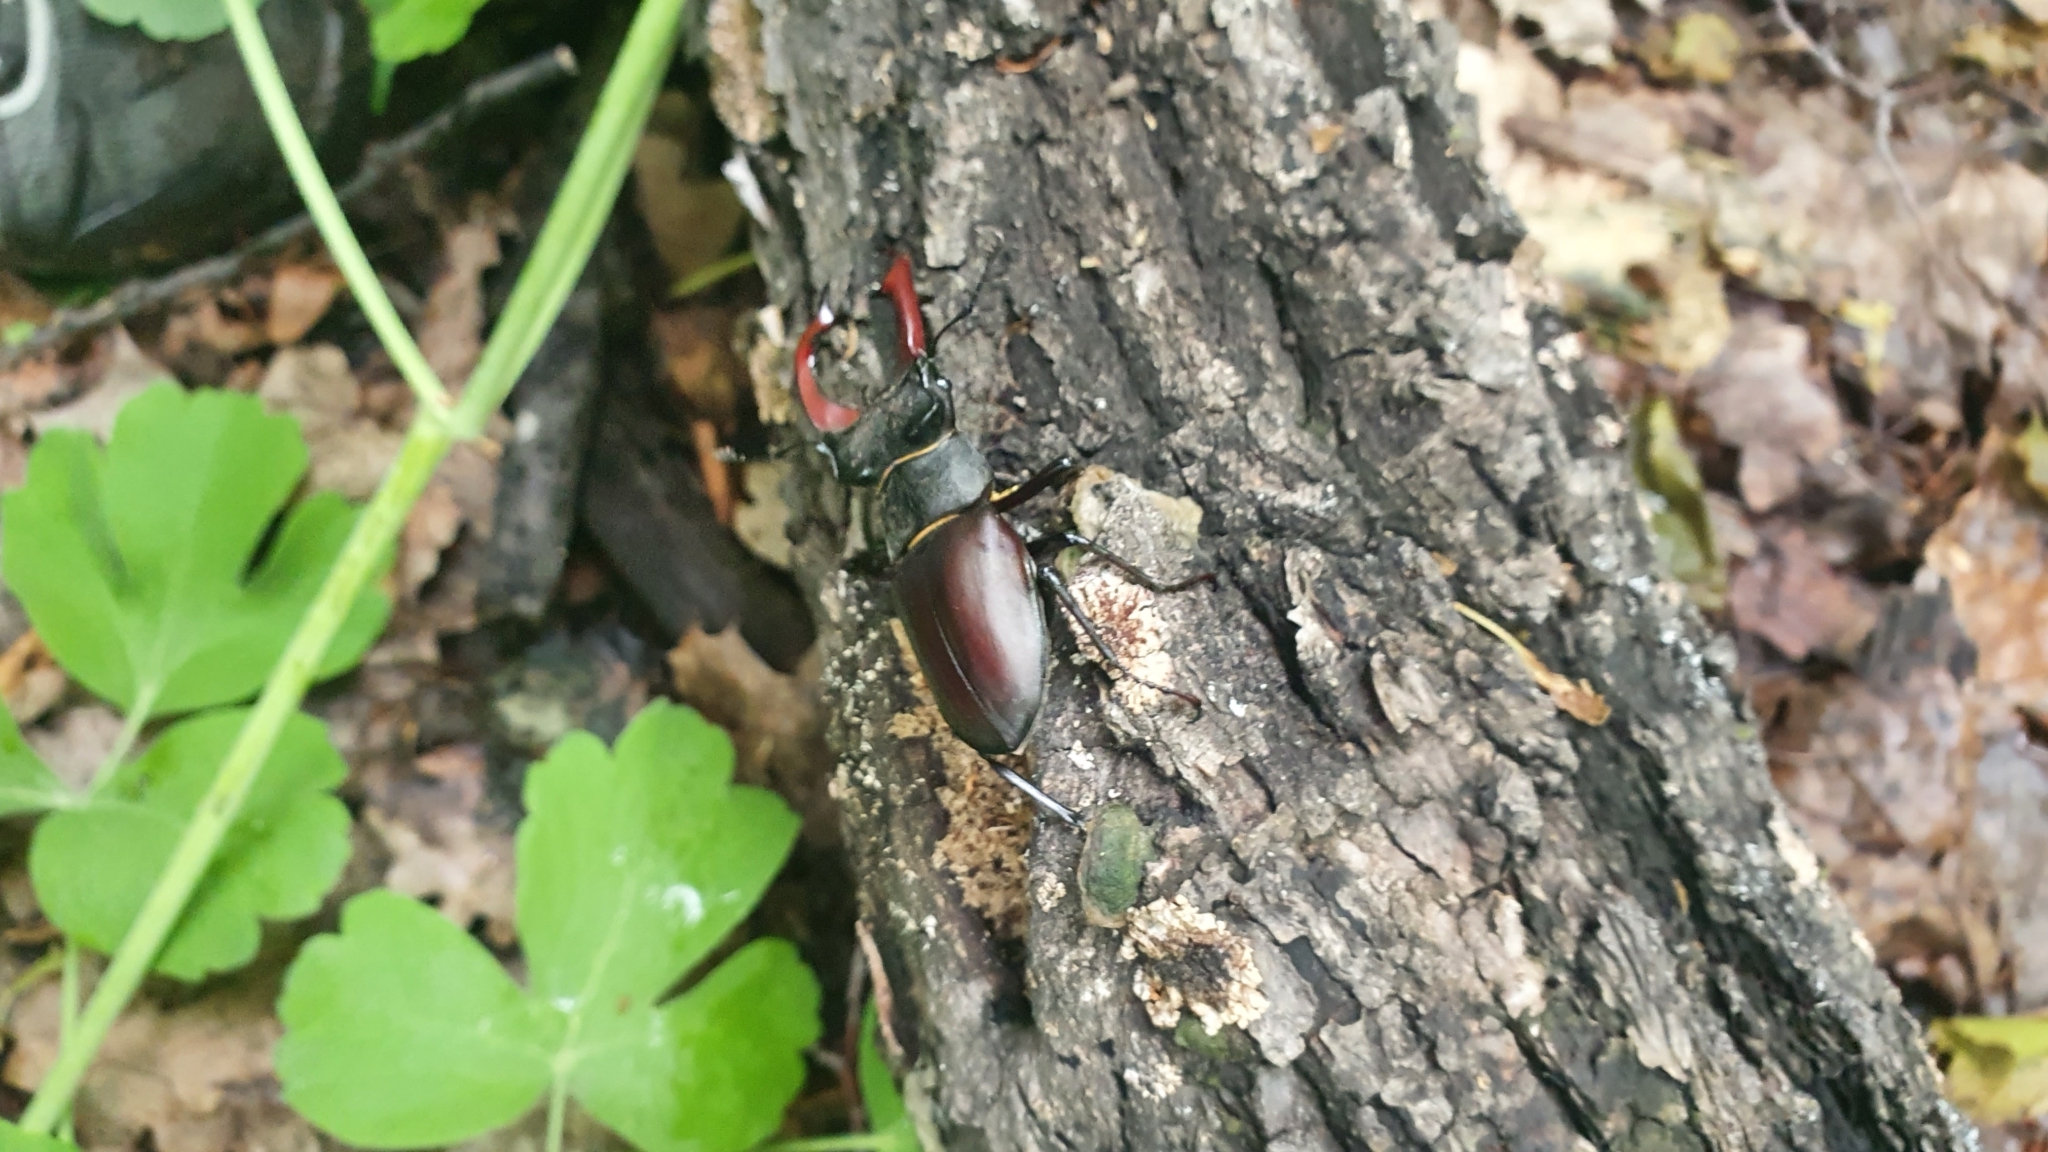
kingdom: Animalia
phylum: Arthropoda
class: Insecta
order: Coleoptera
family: Lucanidae
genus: Lucanus
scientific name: Lucanus cervus
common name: Stag beetle
